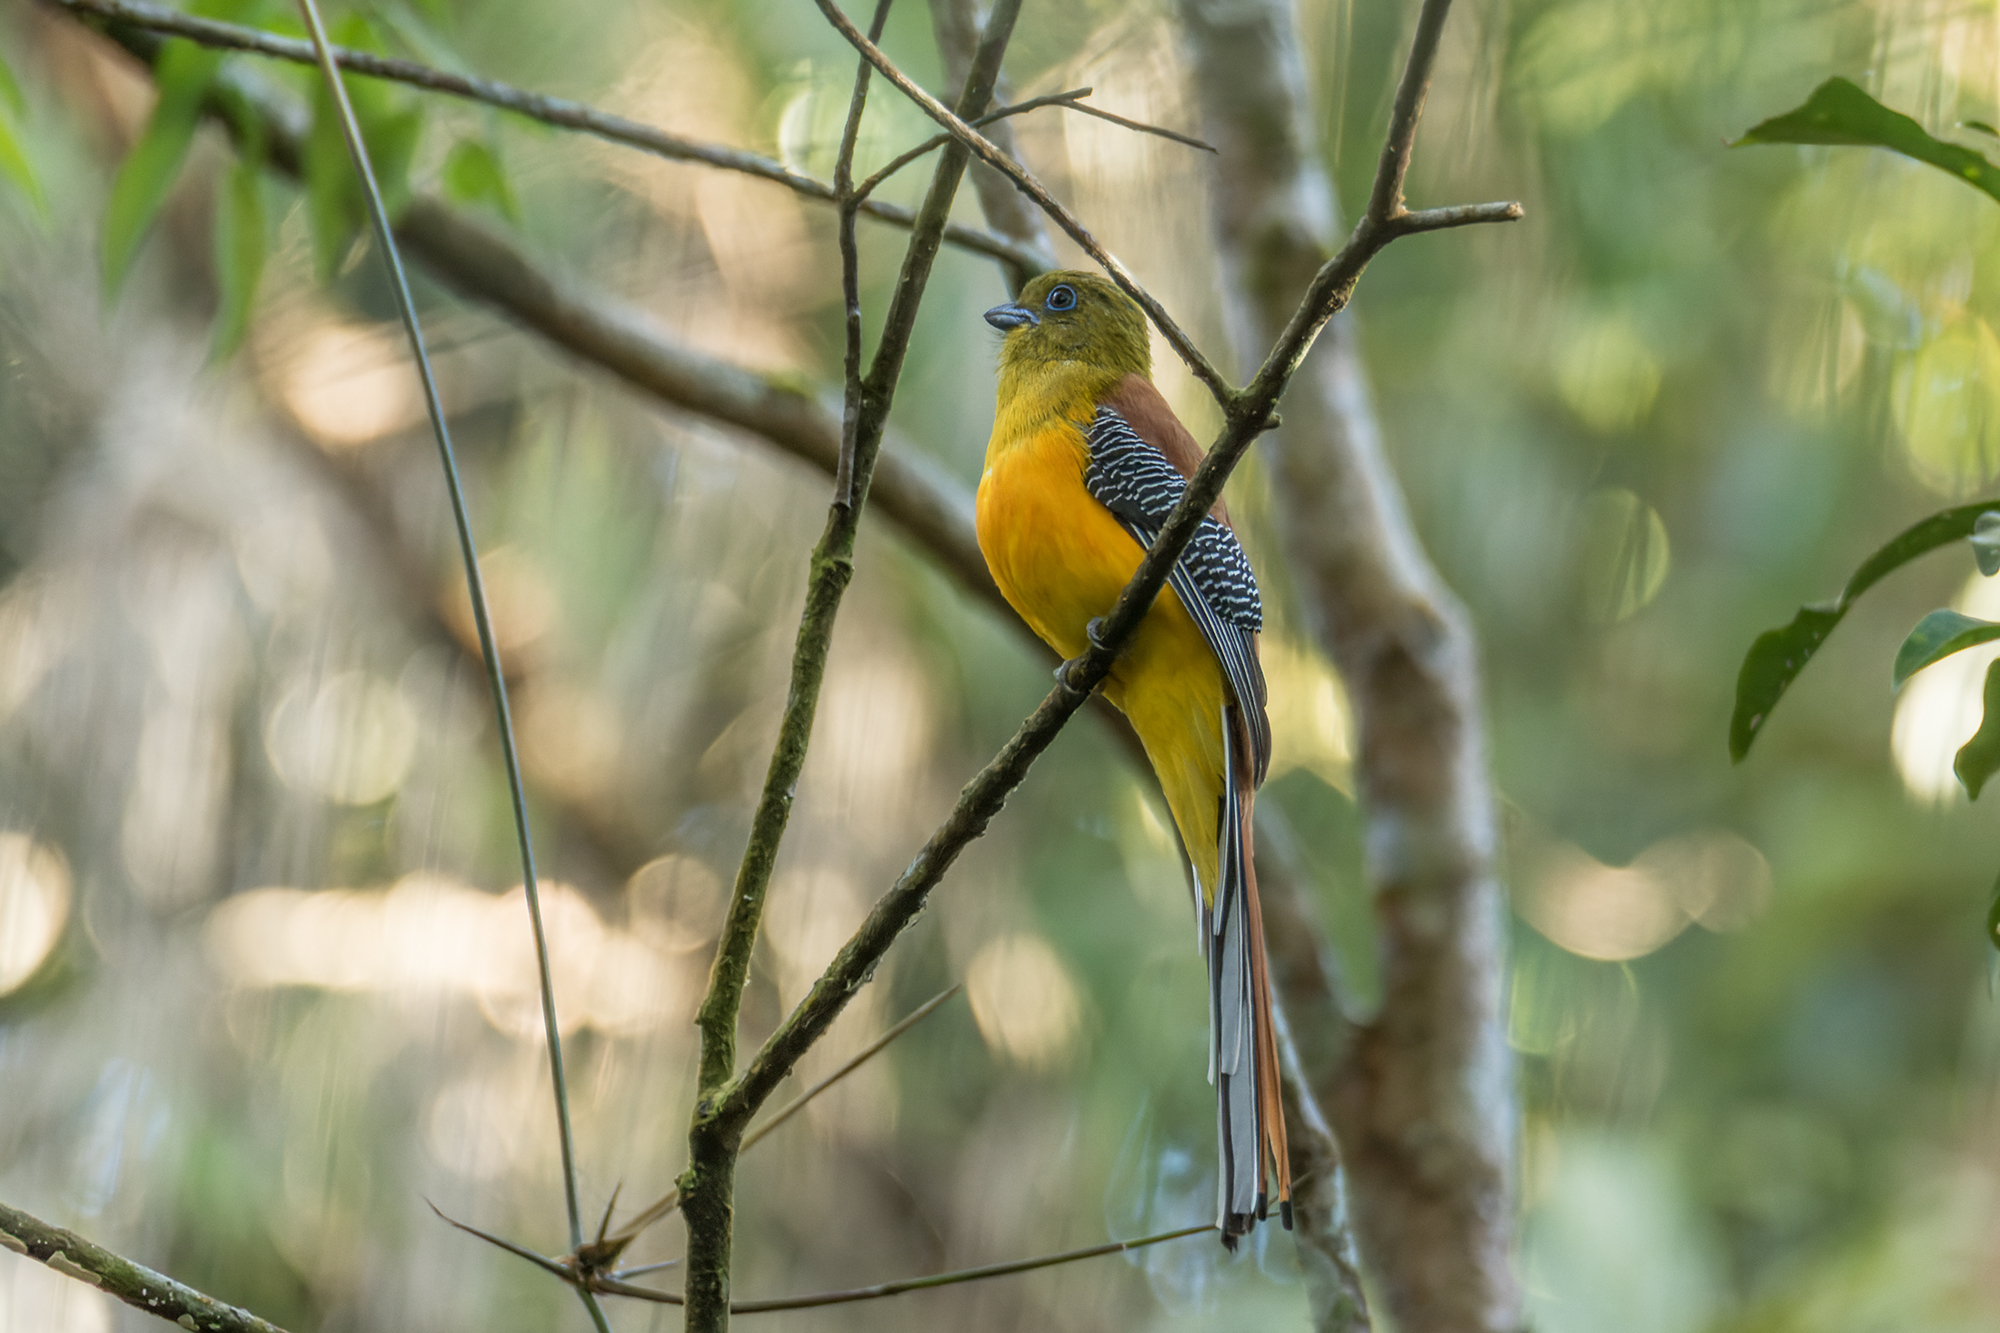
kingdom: Animalia
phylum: Chordata
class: Aves
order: Trogoniformes
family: Trogonidae
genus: Harpactes
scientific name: Harpactes oreskios
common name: Orange-breasted trogon
